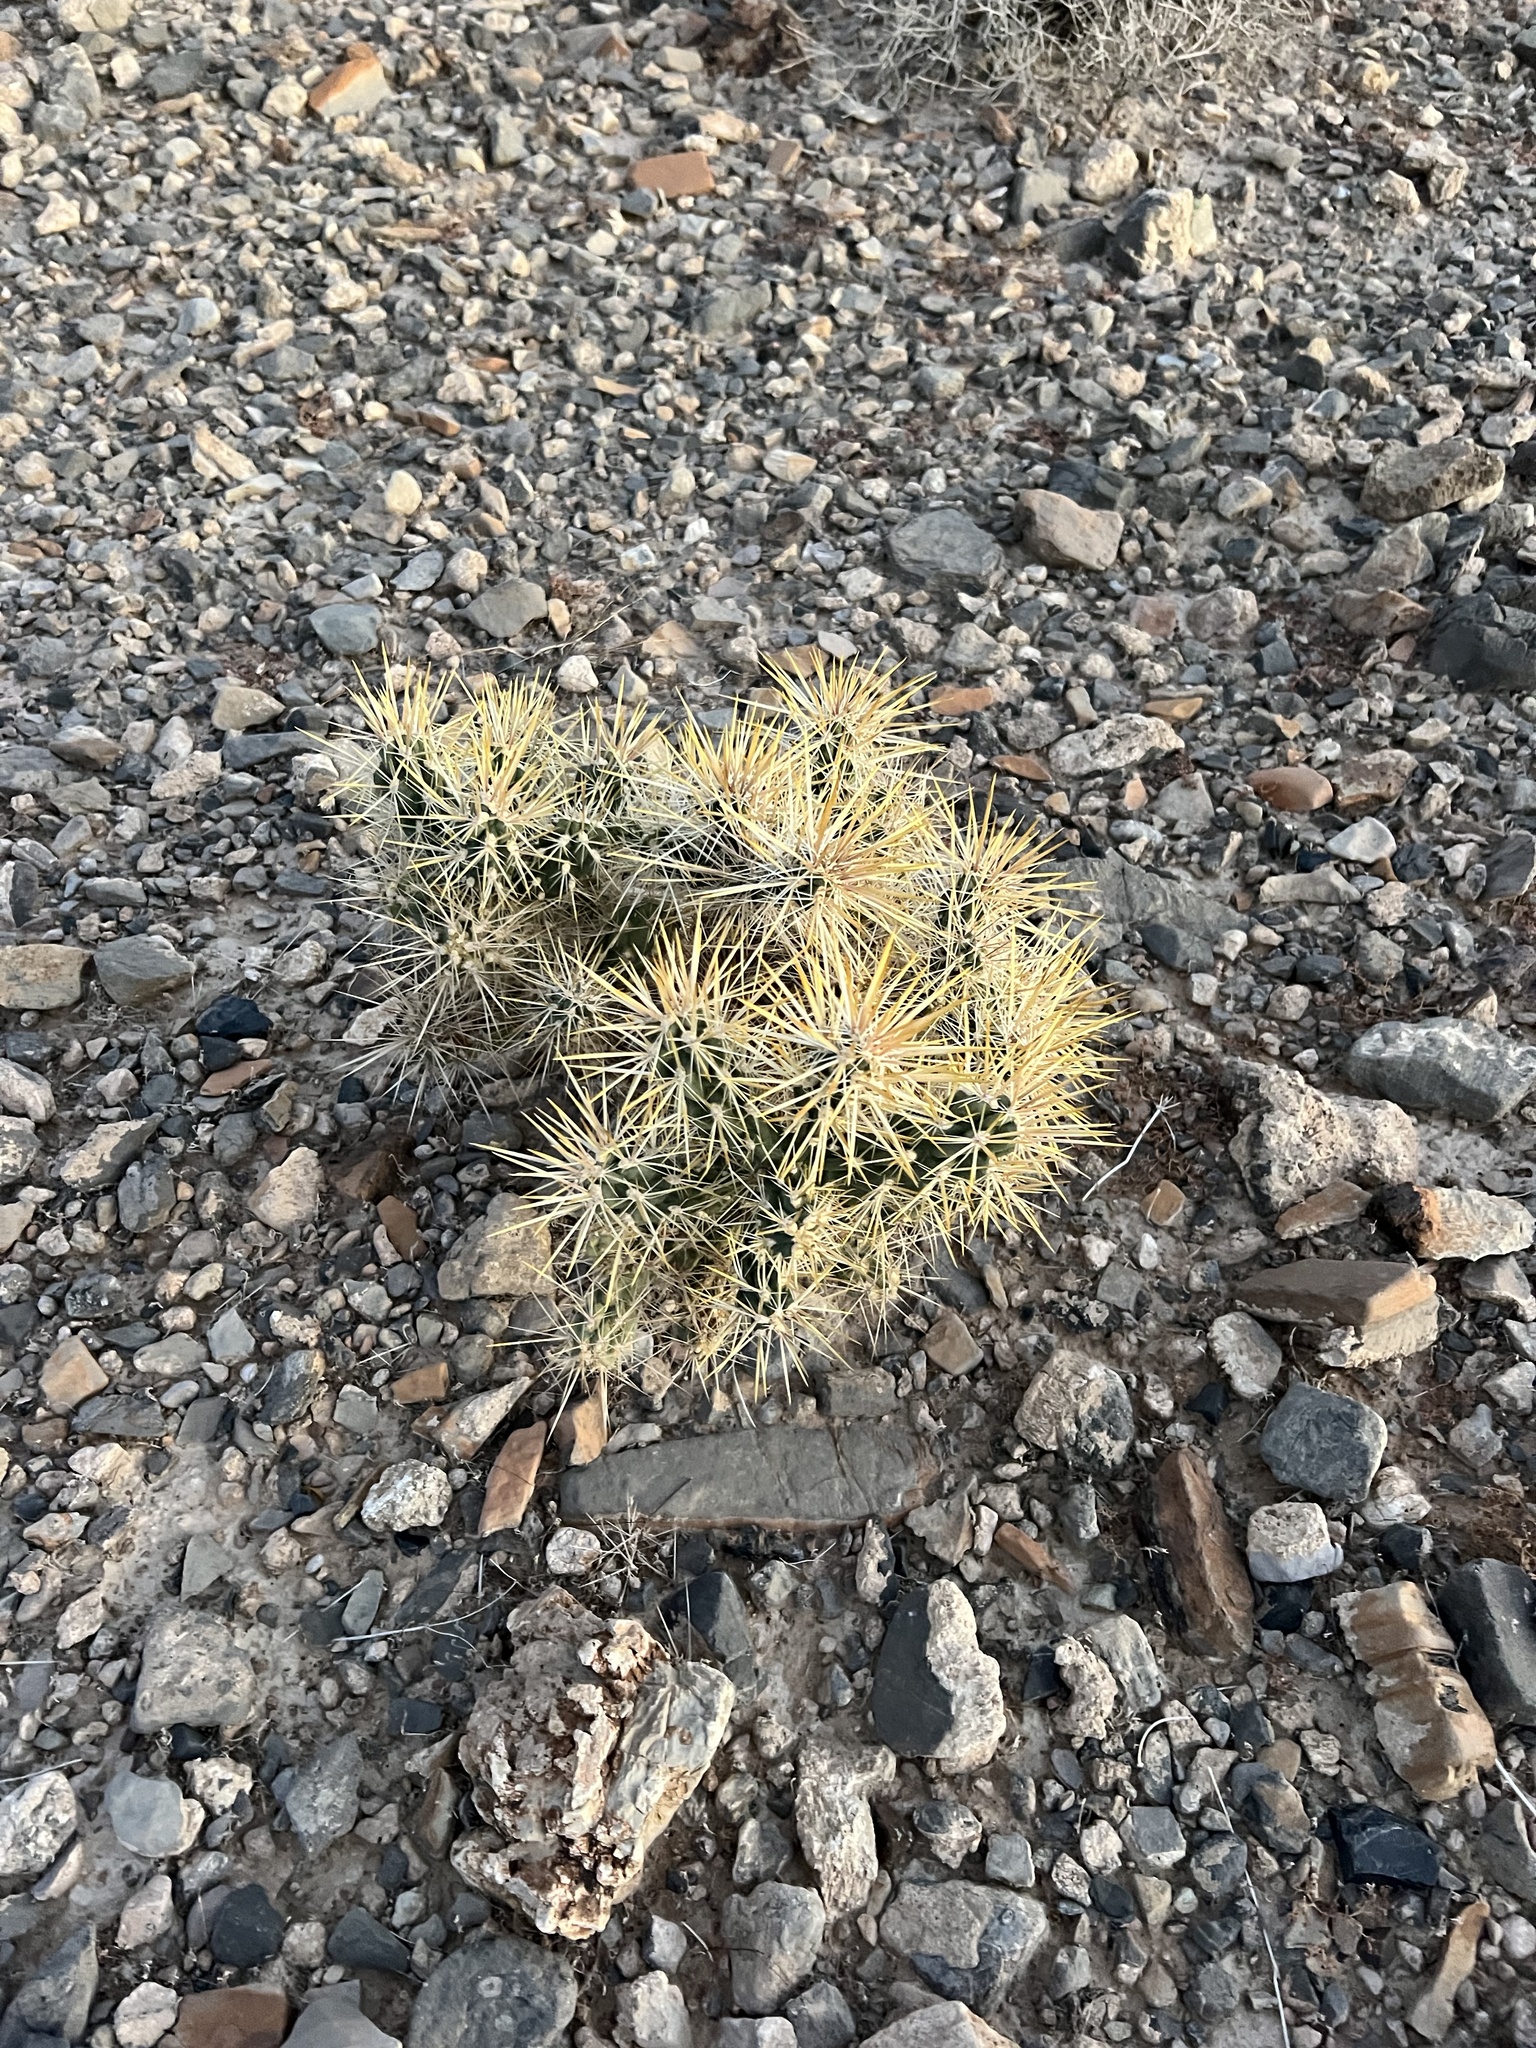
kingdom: Plantae
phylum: Tracheophyta
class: Magnoliopsida
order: Caryophyllales
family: Cactaceae
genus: Cylindropuntia
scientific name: Cylindropuntia echinocarpa
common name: Ground cholla
